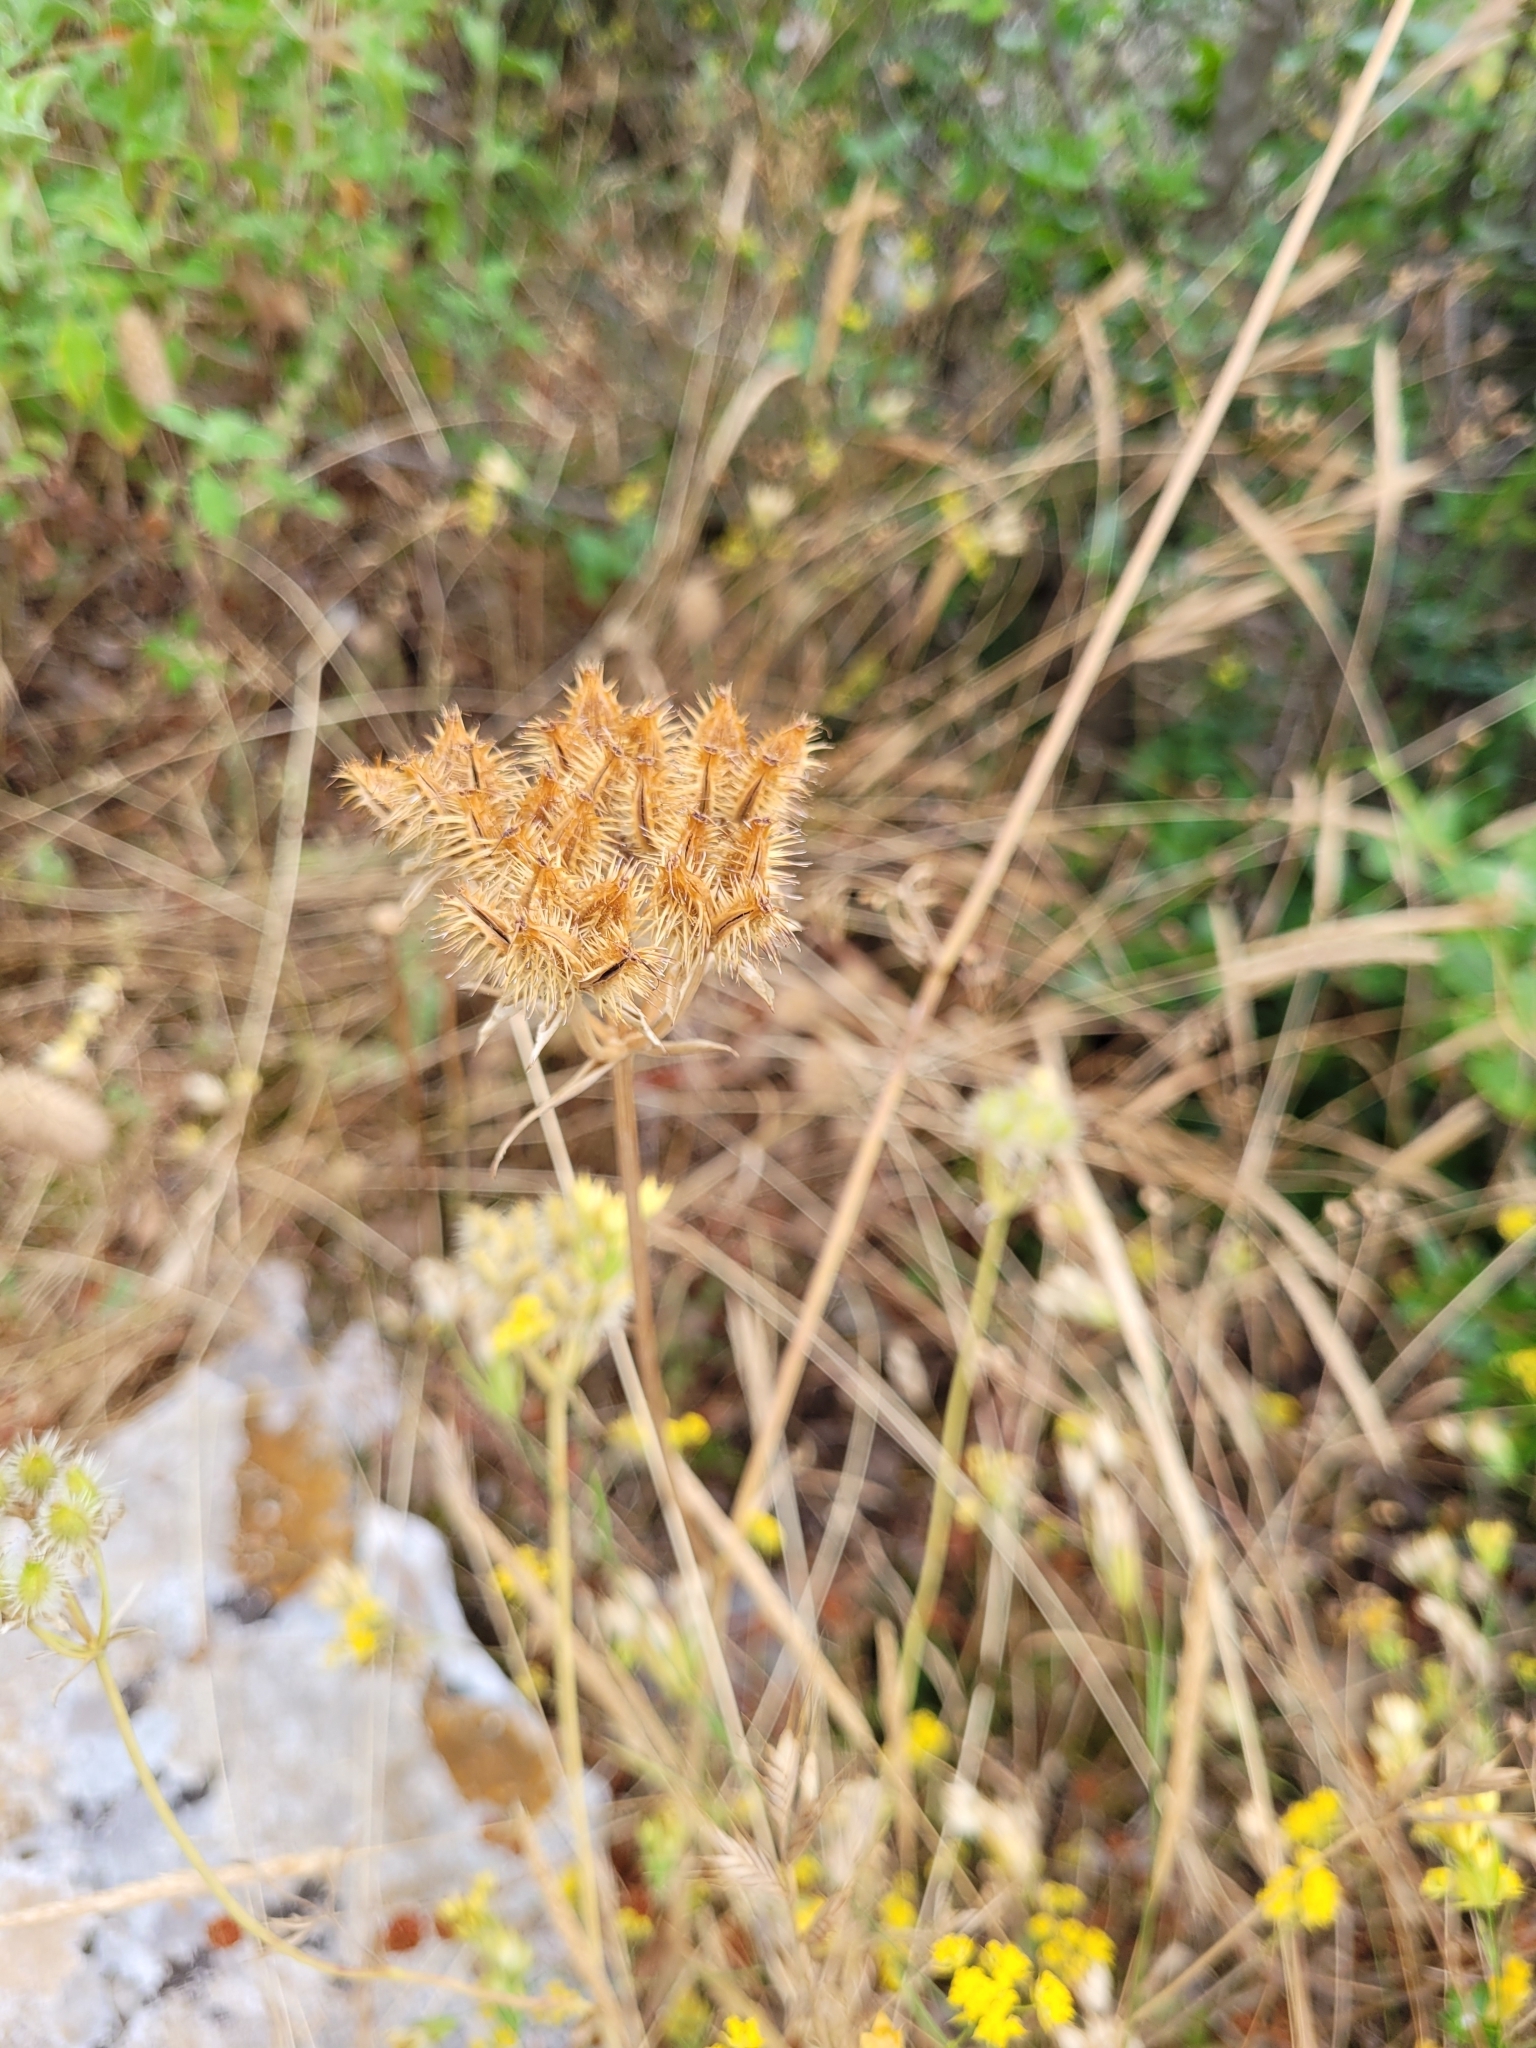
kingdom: Plantae
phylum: Tracheophyta
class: Magnoliopsida
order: Apiales
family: Apiaceae
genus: Orlaya
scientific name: Orlaya grandiflora
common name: White lace flower
